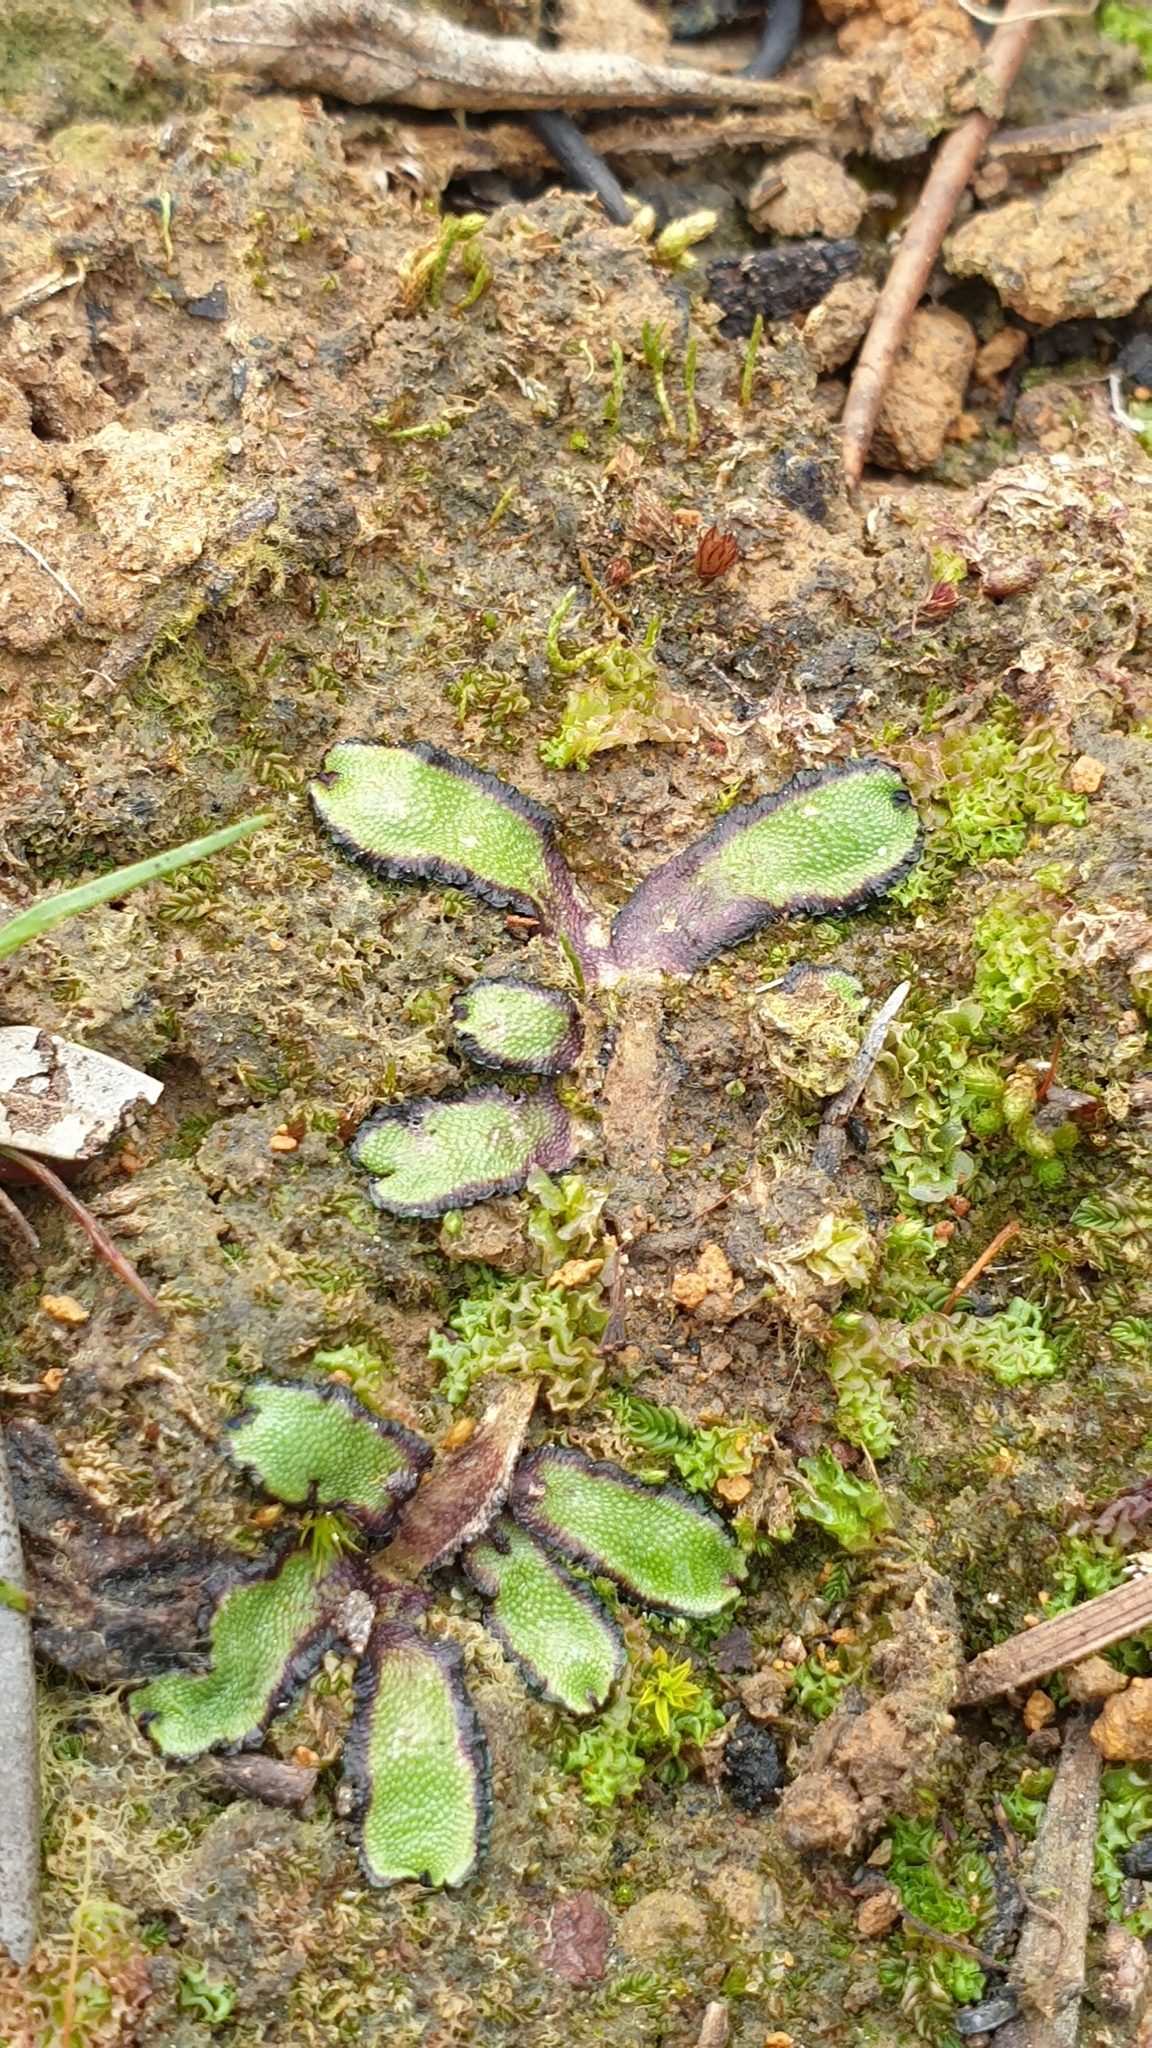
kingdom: Plantae
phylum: Marchantiophyta
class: Marchantiopsida
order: Marchantiales
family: Aytoniaceae
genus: Asterella
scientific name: Asterella drummondii
